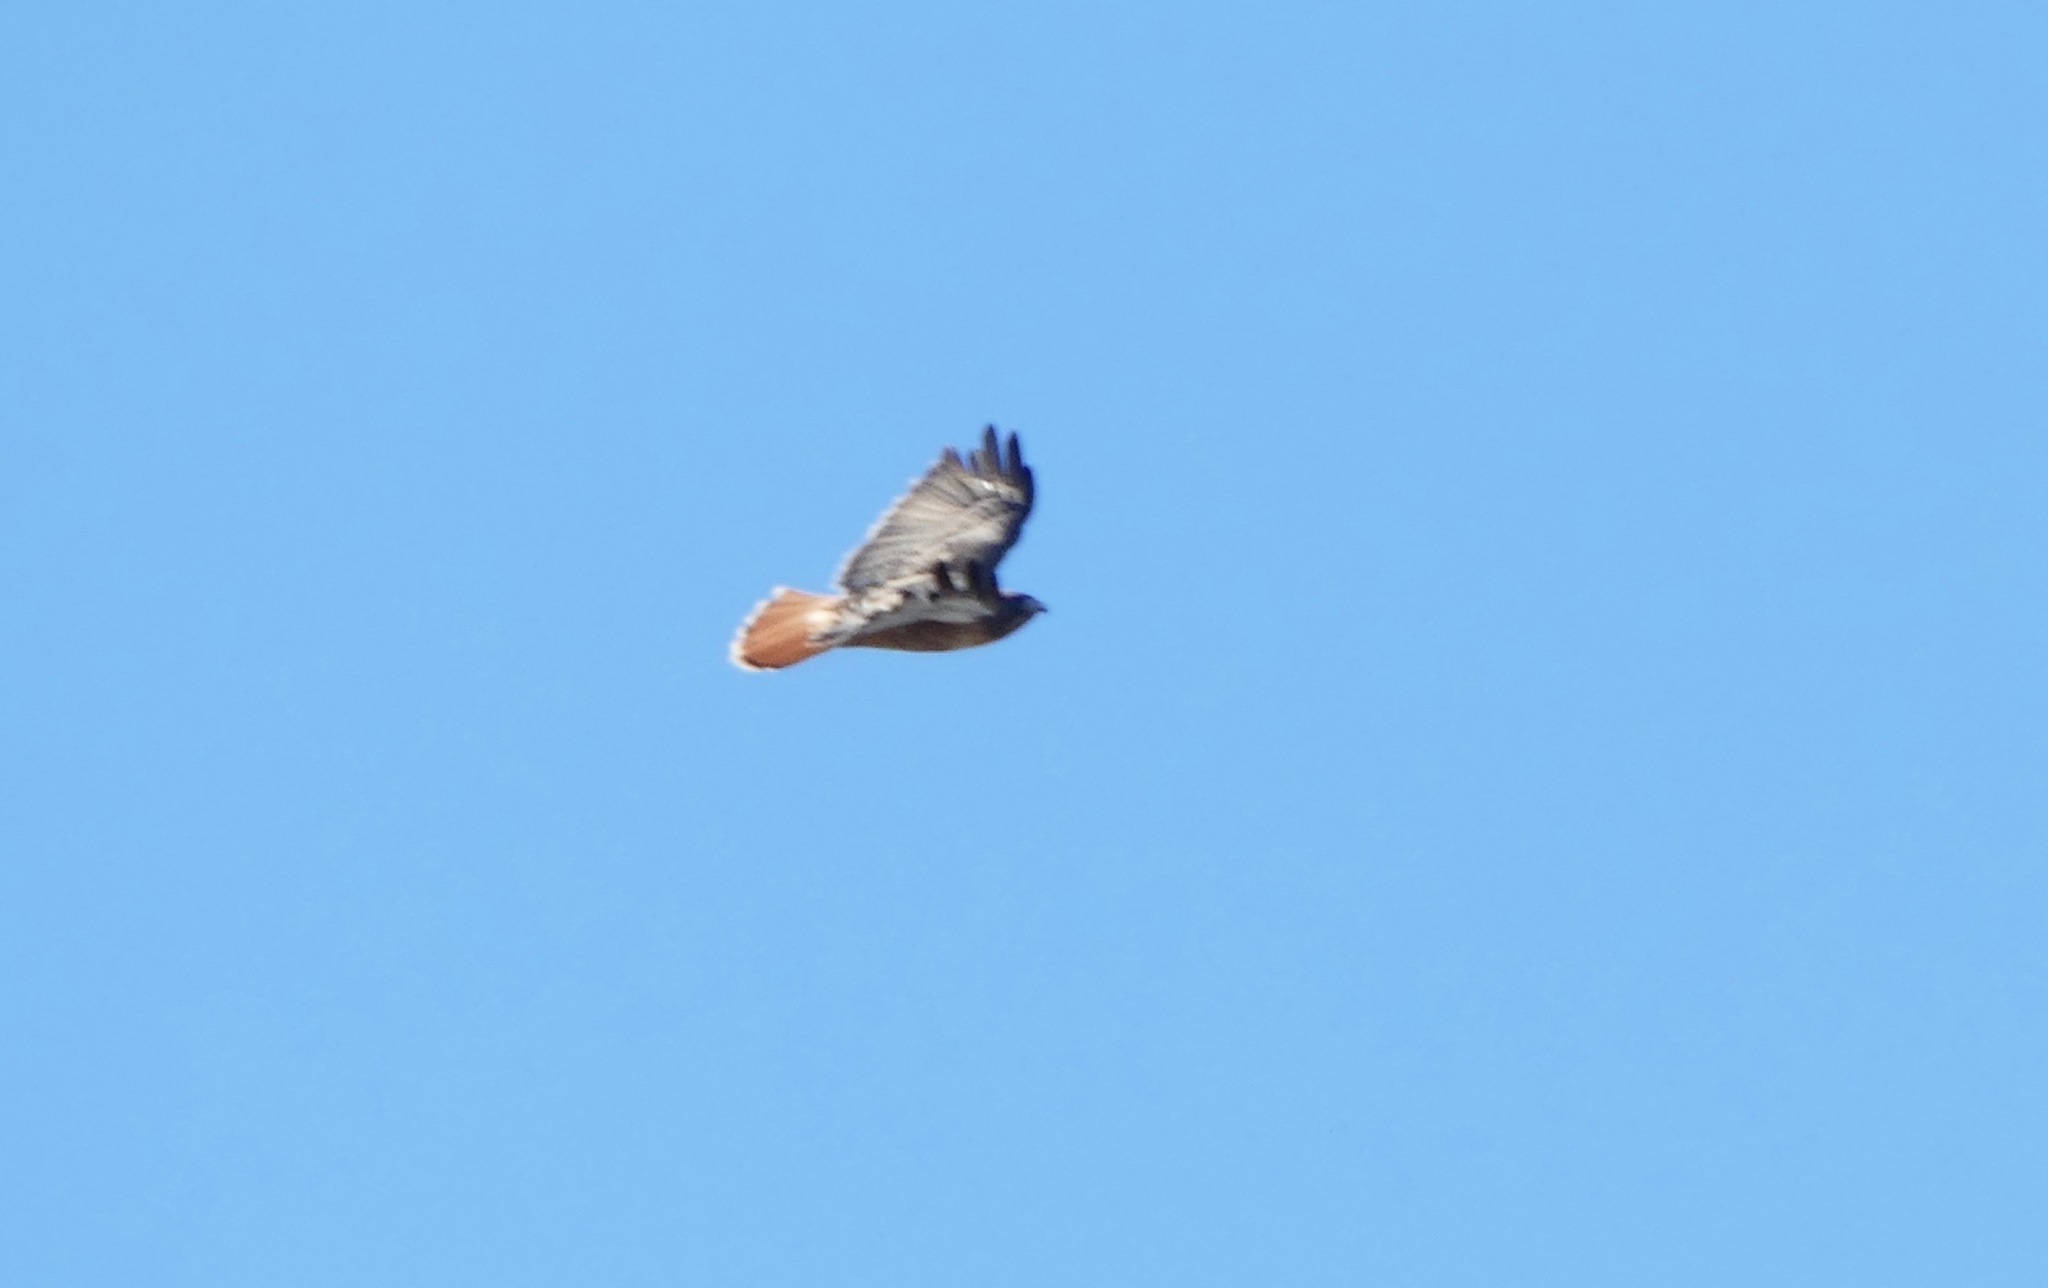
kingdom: Animalia
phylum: Chordata
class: Aves
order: Accipitriformes
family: Accipitridae
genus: Buteo
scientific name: Buteo jamaicensis
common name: Red-tailed hawk
